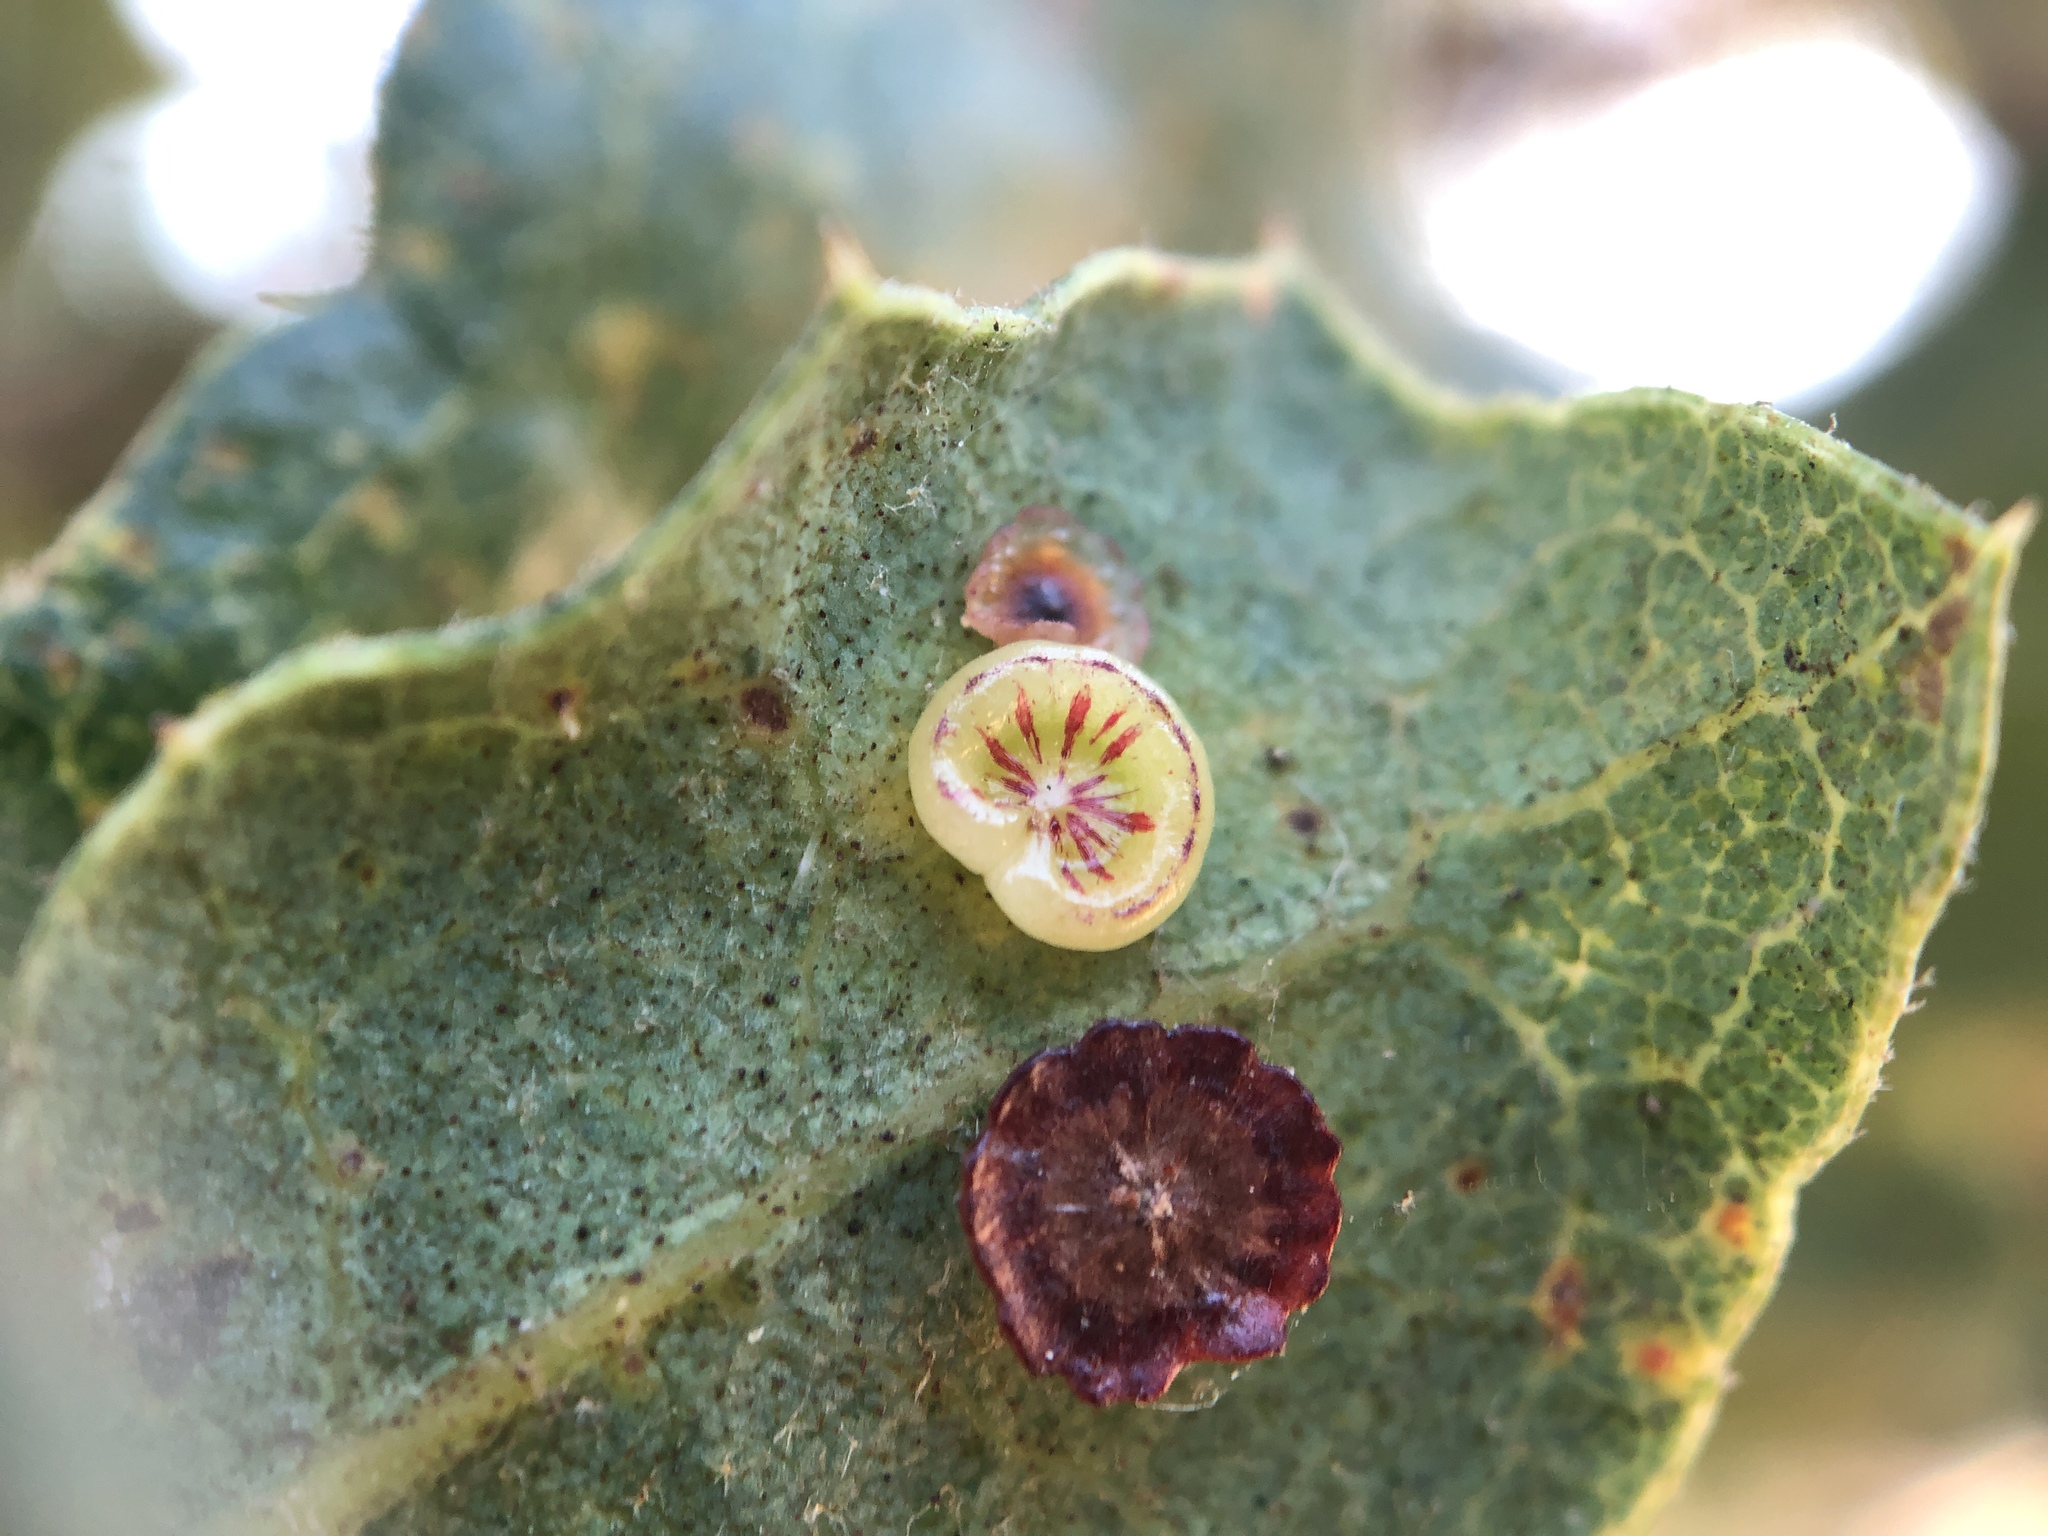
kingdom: Animalia
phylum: Arthropoda
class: Insecta
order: Hymenoptera
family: Cynipidae
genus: Andricus
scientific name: Andricus
